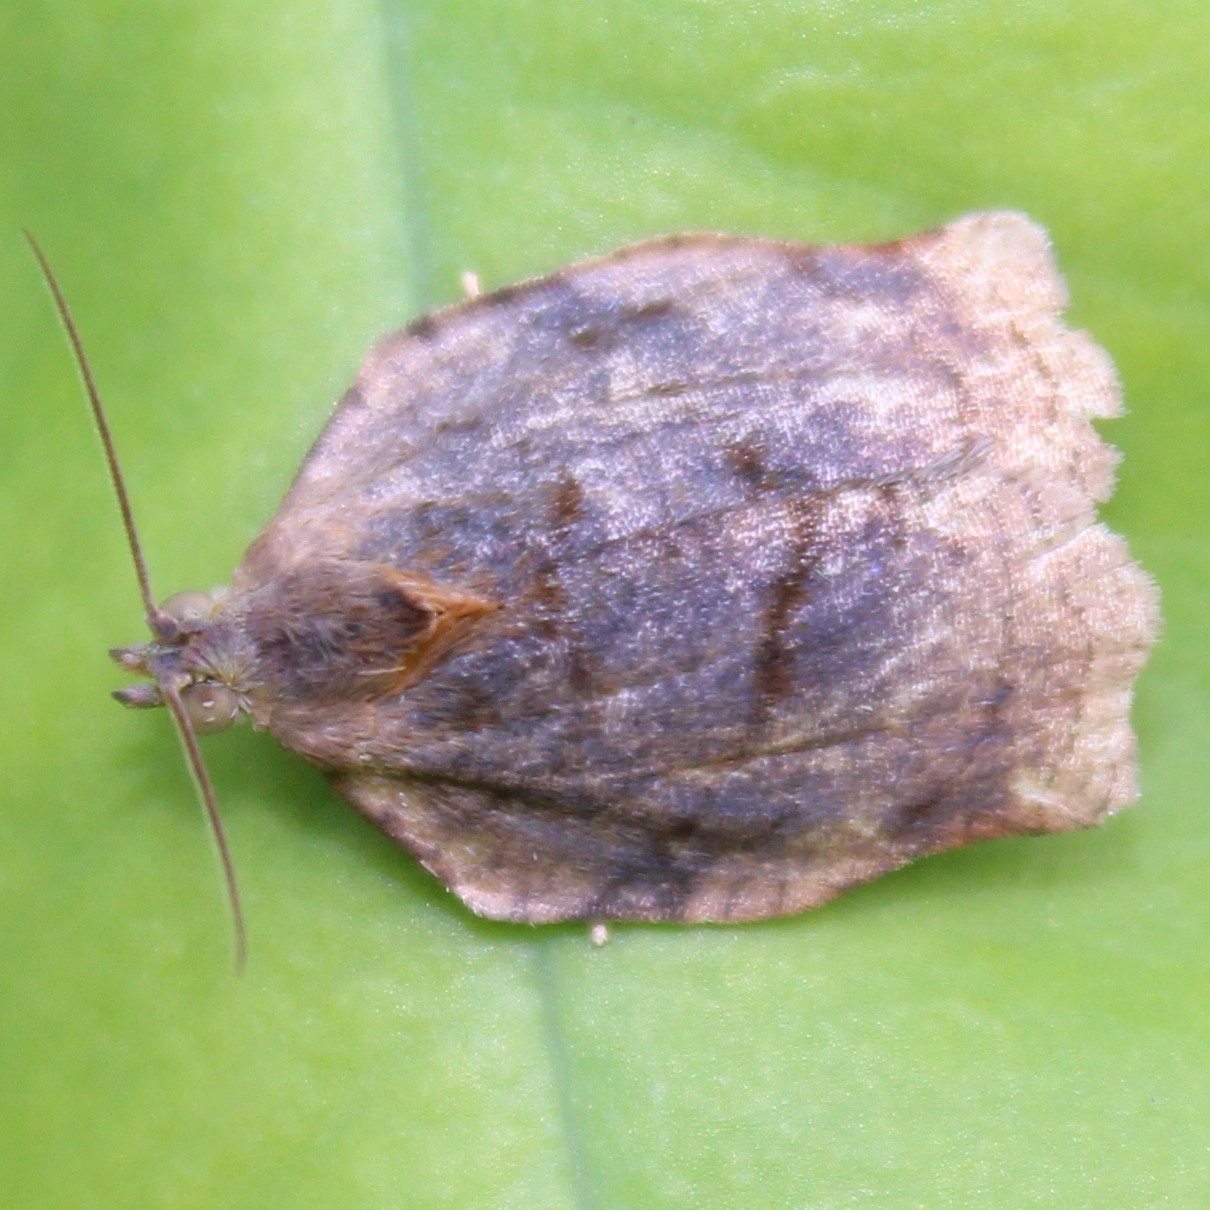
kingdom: Animalia
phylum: Arthropoda
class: Insecta
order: Lepidoptera
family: Tortricidae
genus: Archips
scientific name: Archips purpurana
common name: Omnivorous leafroller
